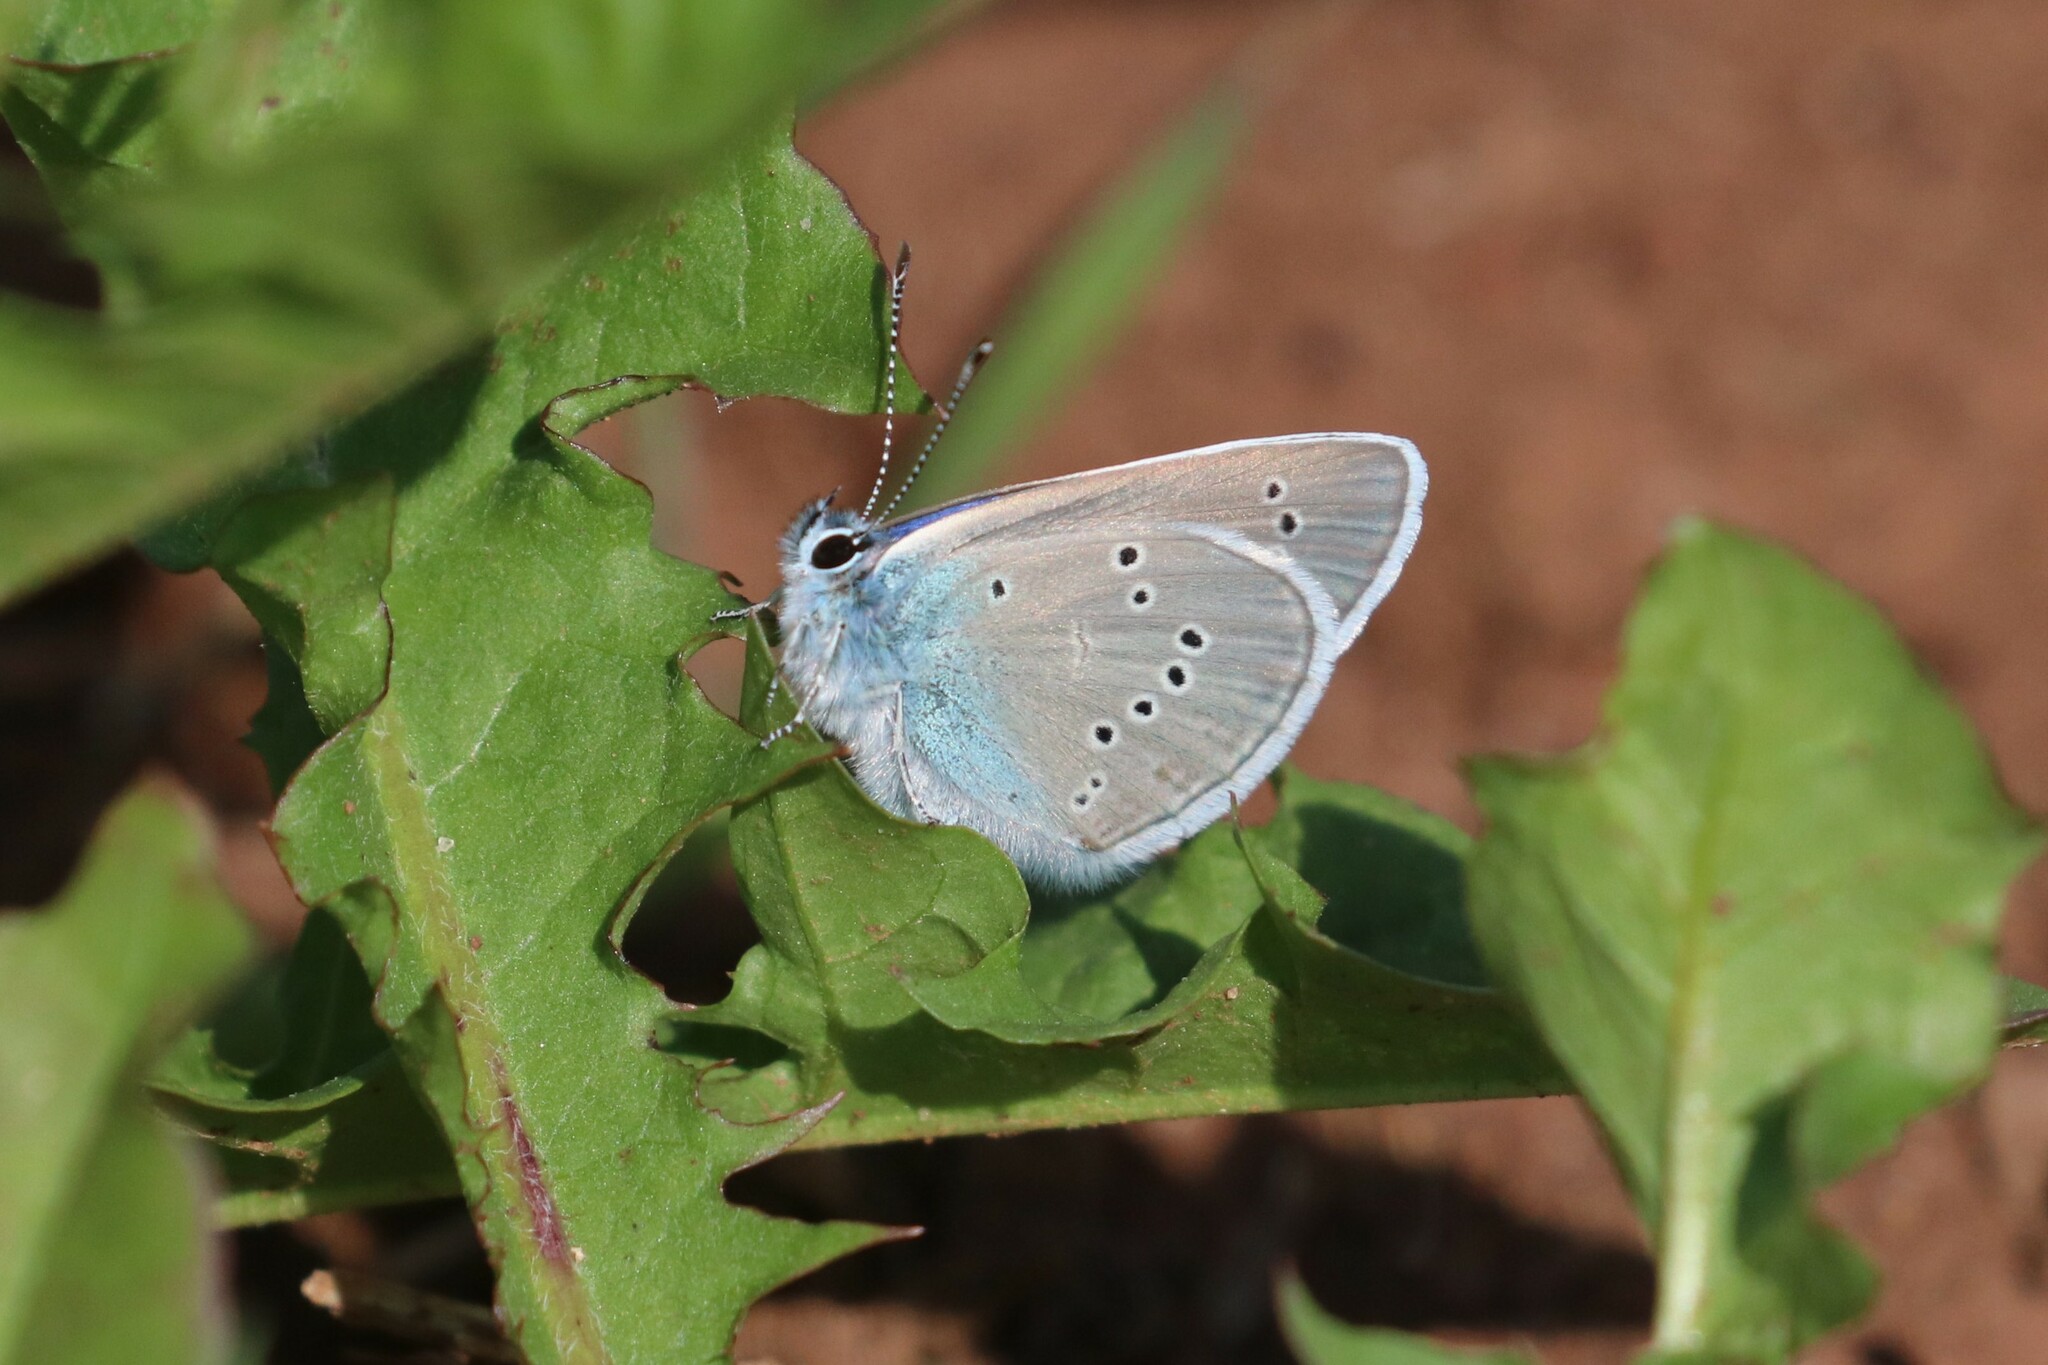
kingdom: Animalia
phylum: Arthropoda
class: Insecta
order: Lepidoptera
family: Lycaenidae
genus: Cyaniris
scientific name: Cyaniris semiargus
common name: Mazarine blue
